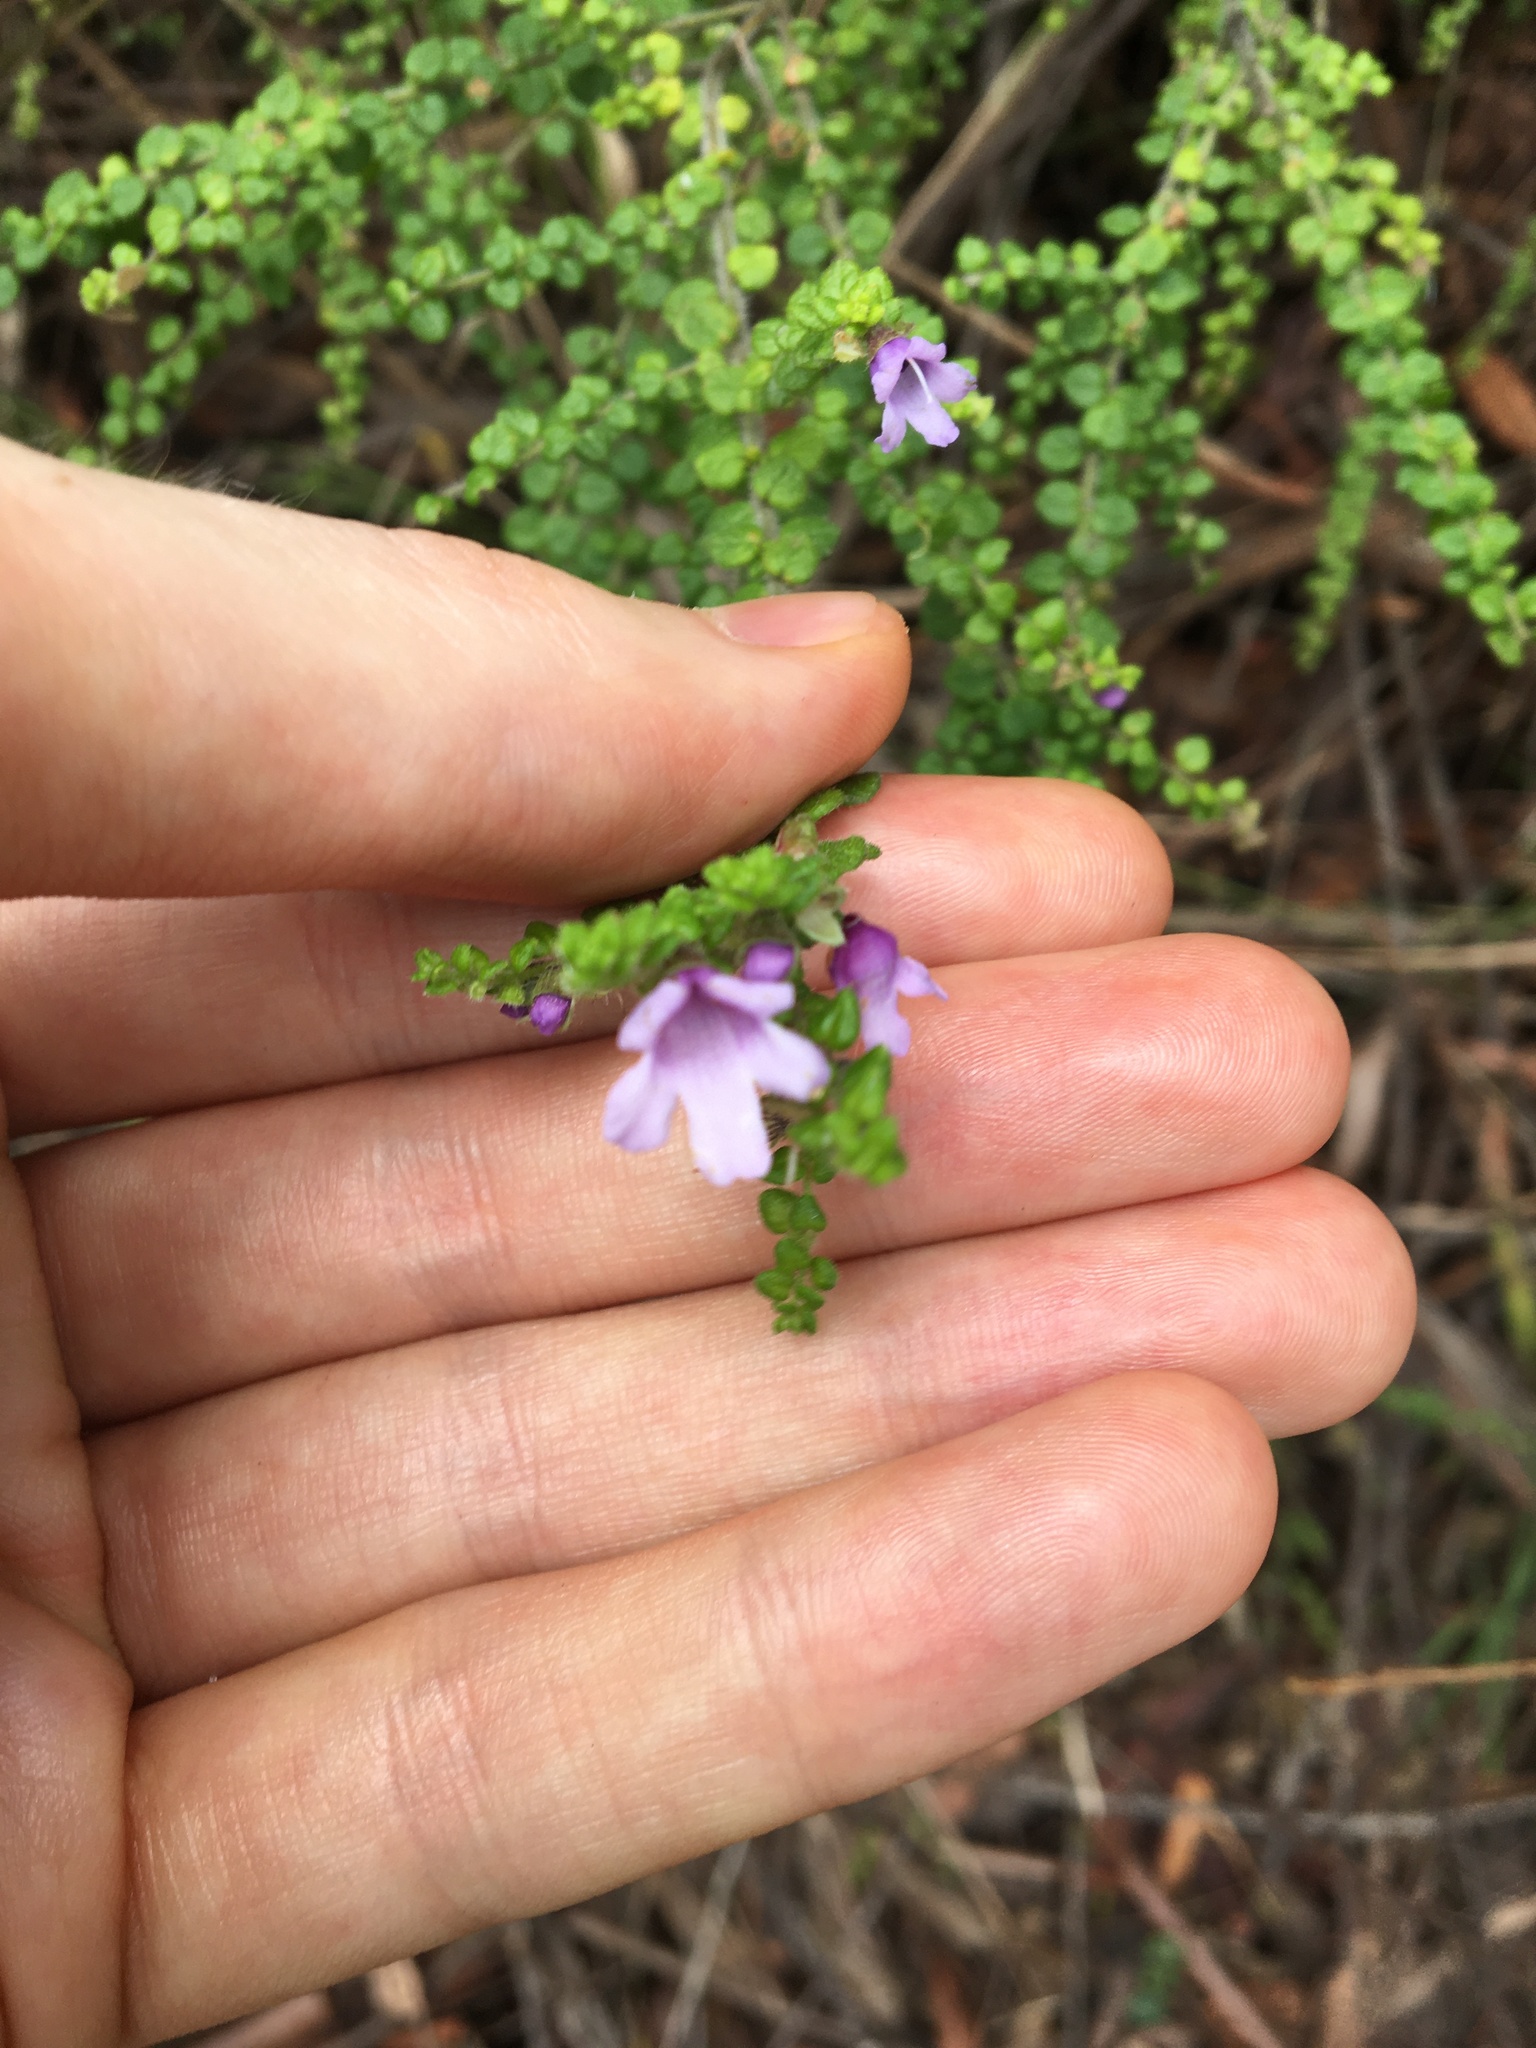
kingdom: Plantae
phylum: Tracheophyta
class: Magnoliopsida
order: Lamiales
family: Lamiaceae
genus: Prostanthera
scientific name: Prostanthera rhombea
